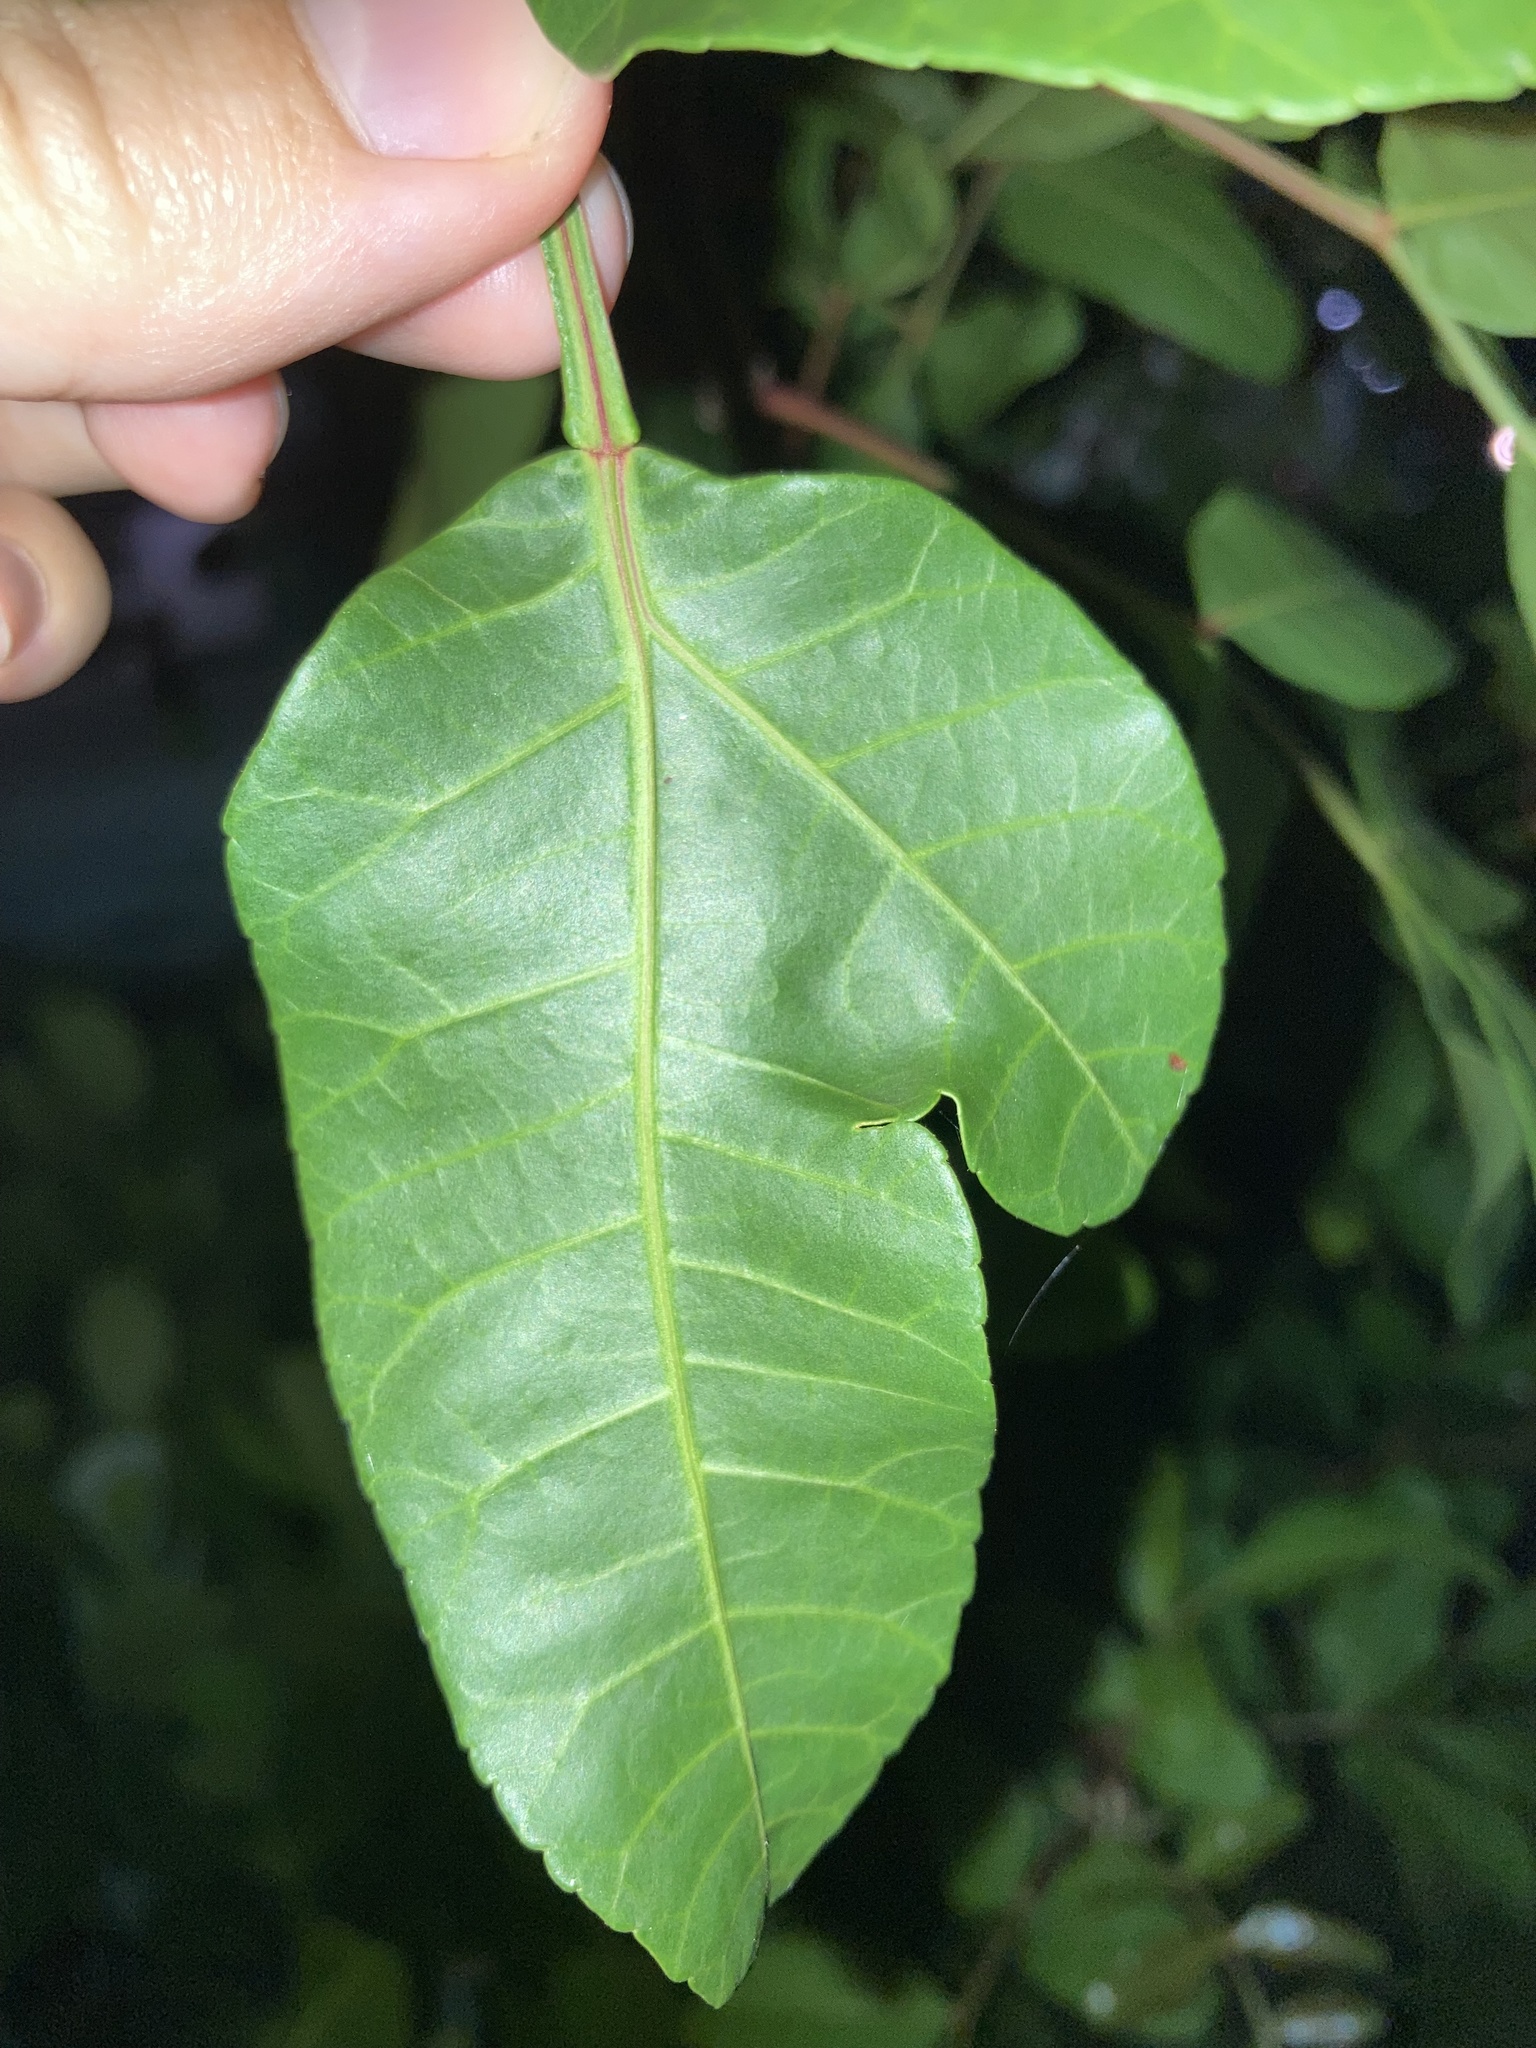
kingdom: Plantae
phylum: Tracheophyta
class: Magnoliopsida
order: Sapindales
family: Anacardiaceae
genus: Schinus
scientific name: Schinus terebinthifolia
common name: Brazilian peppertree
